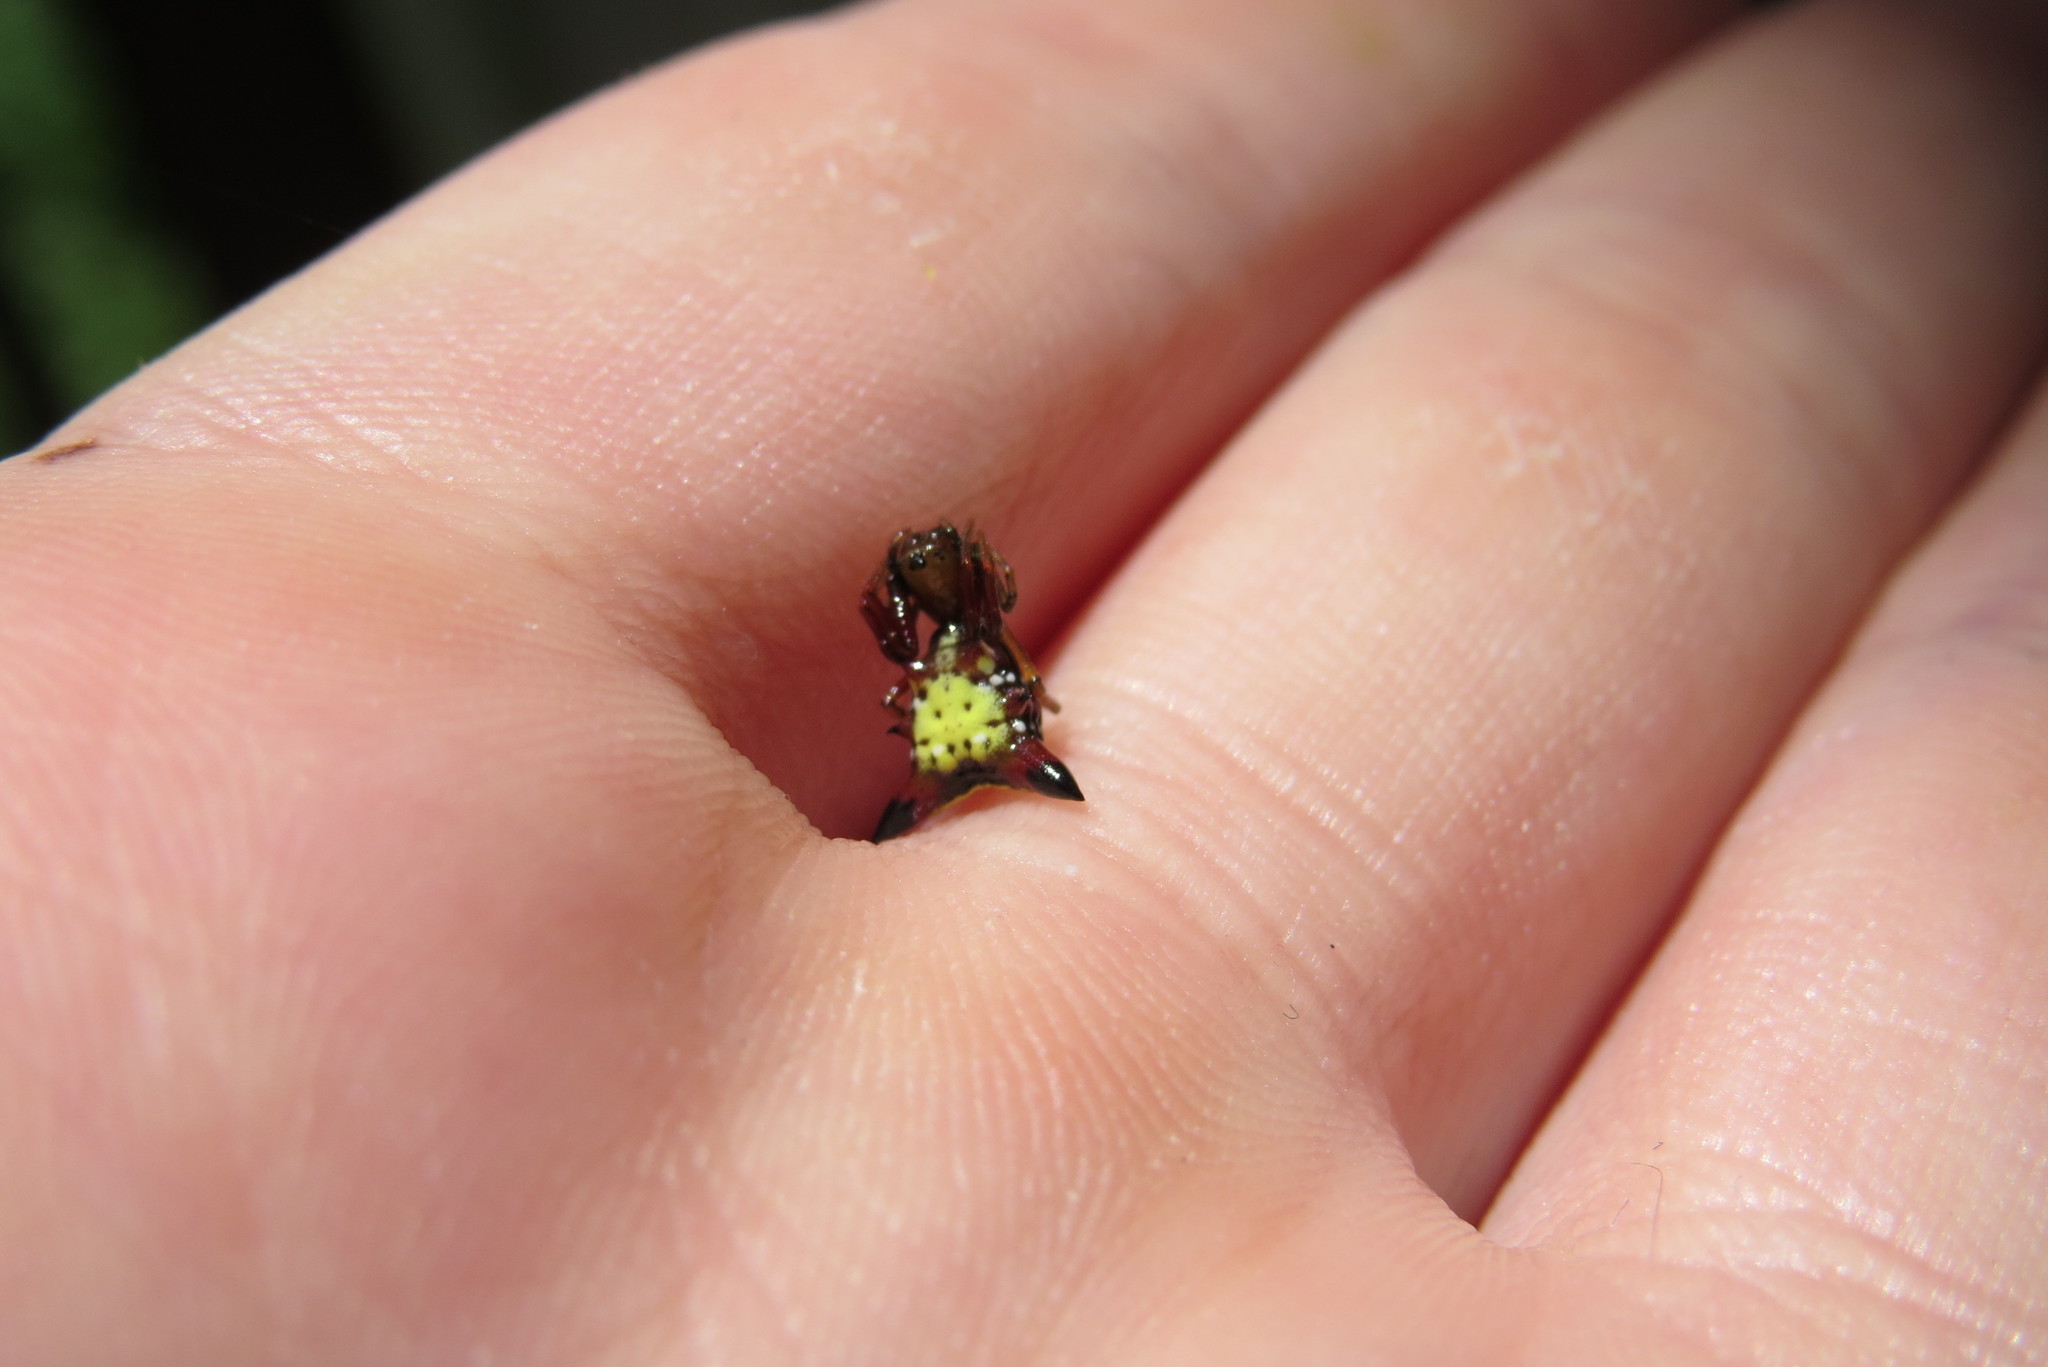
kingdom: Animalia
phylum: Arthropoda
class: Arachnida
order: Araneae
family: Araneidae
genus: Micrathena
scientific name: Micrathena sagittata
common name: Orb weavers
